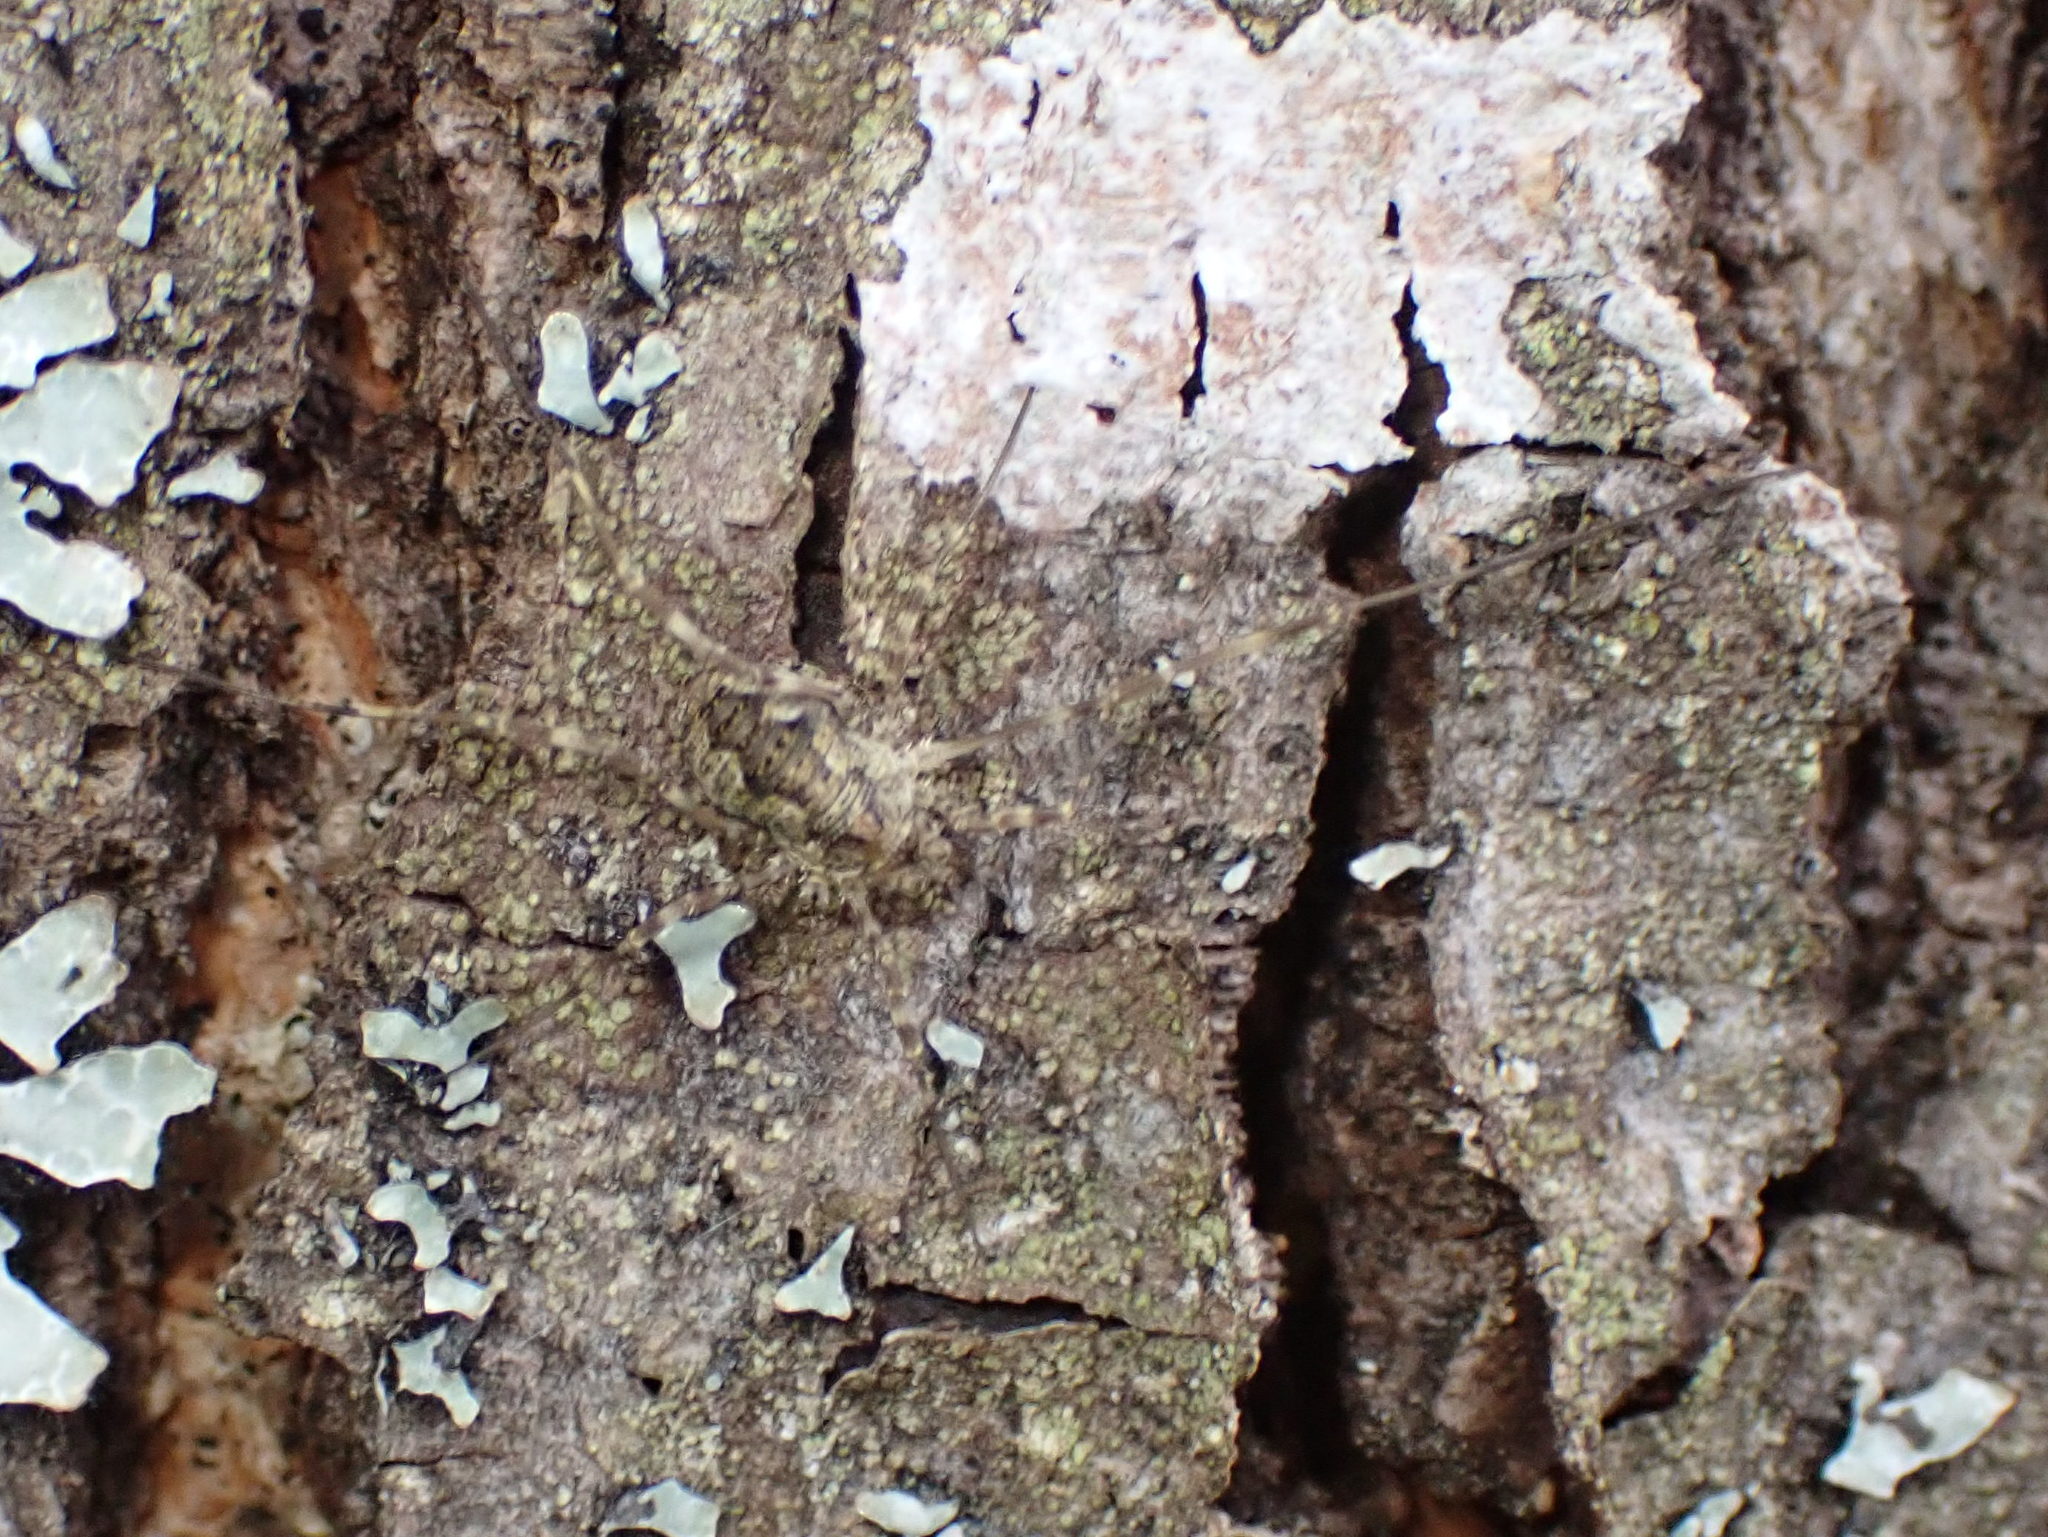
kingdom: Animalia
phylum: Arthropoda
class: Arachnida
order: Opiliones
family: Phalangiidae
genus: Odiellus
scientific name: Odiellus pictus
